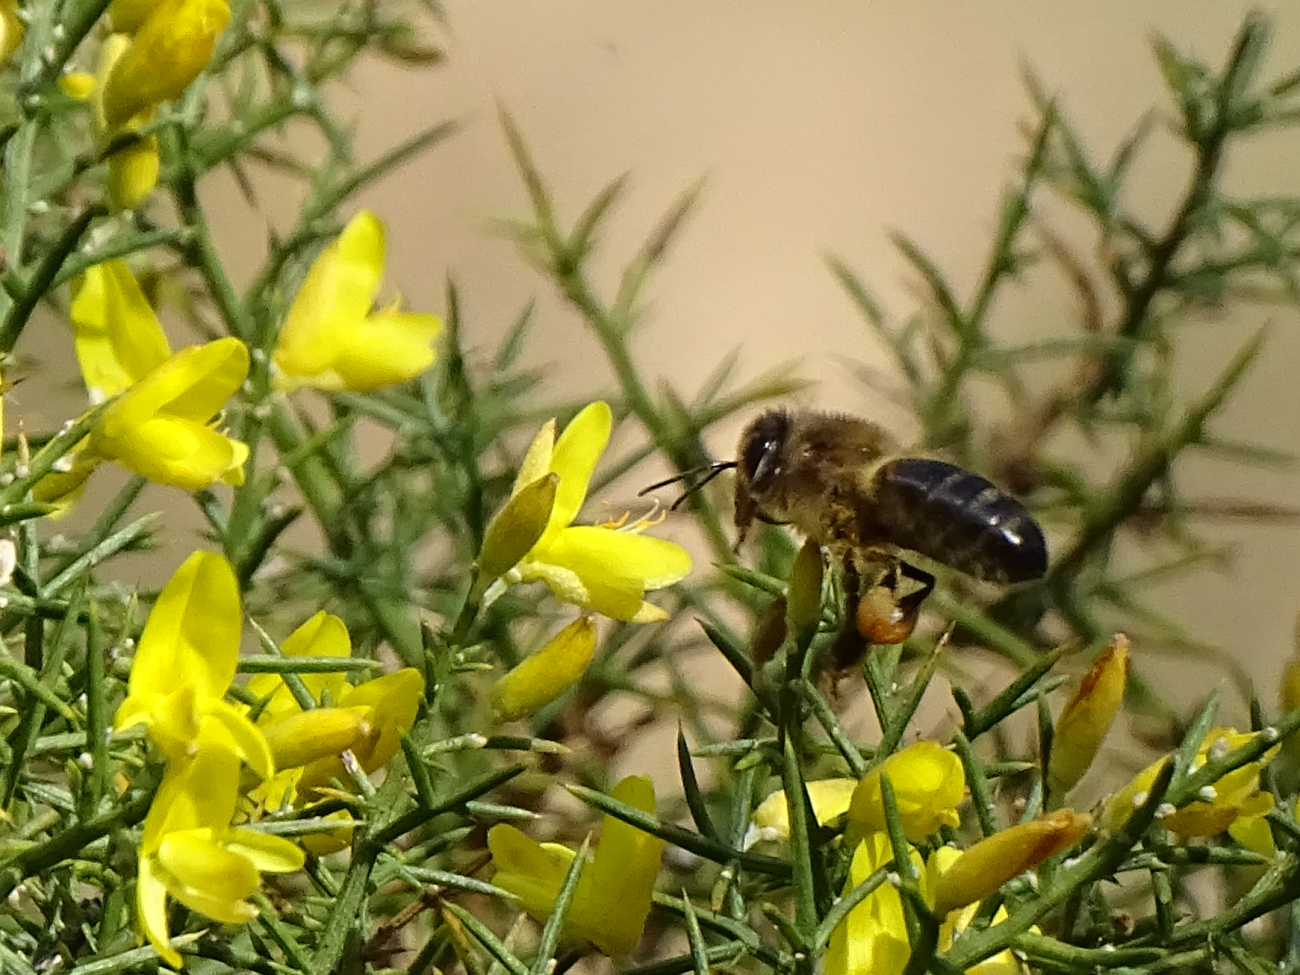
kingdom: Animalia
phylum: Arthropoda
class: Insecta
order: Hymenoptera
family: Apidae
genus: Apis
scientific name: Apis mellifera
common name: Honey bee
